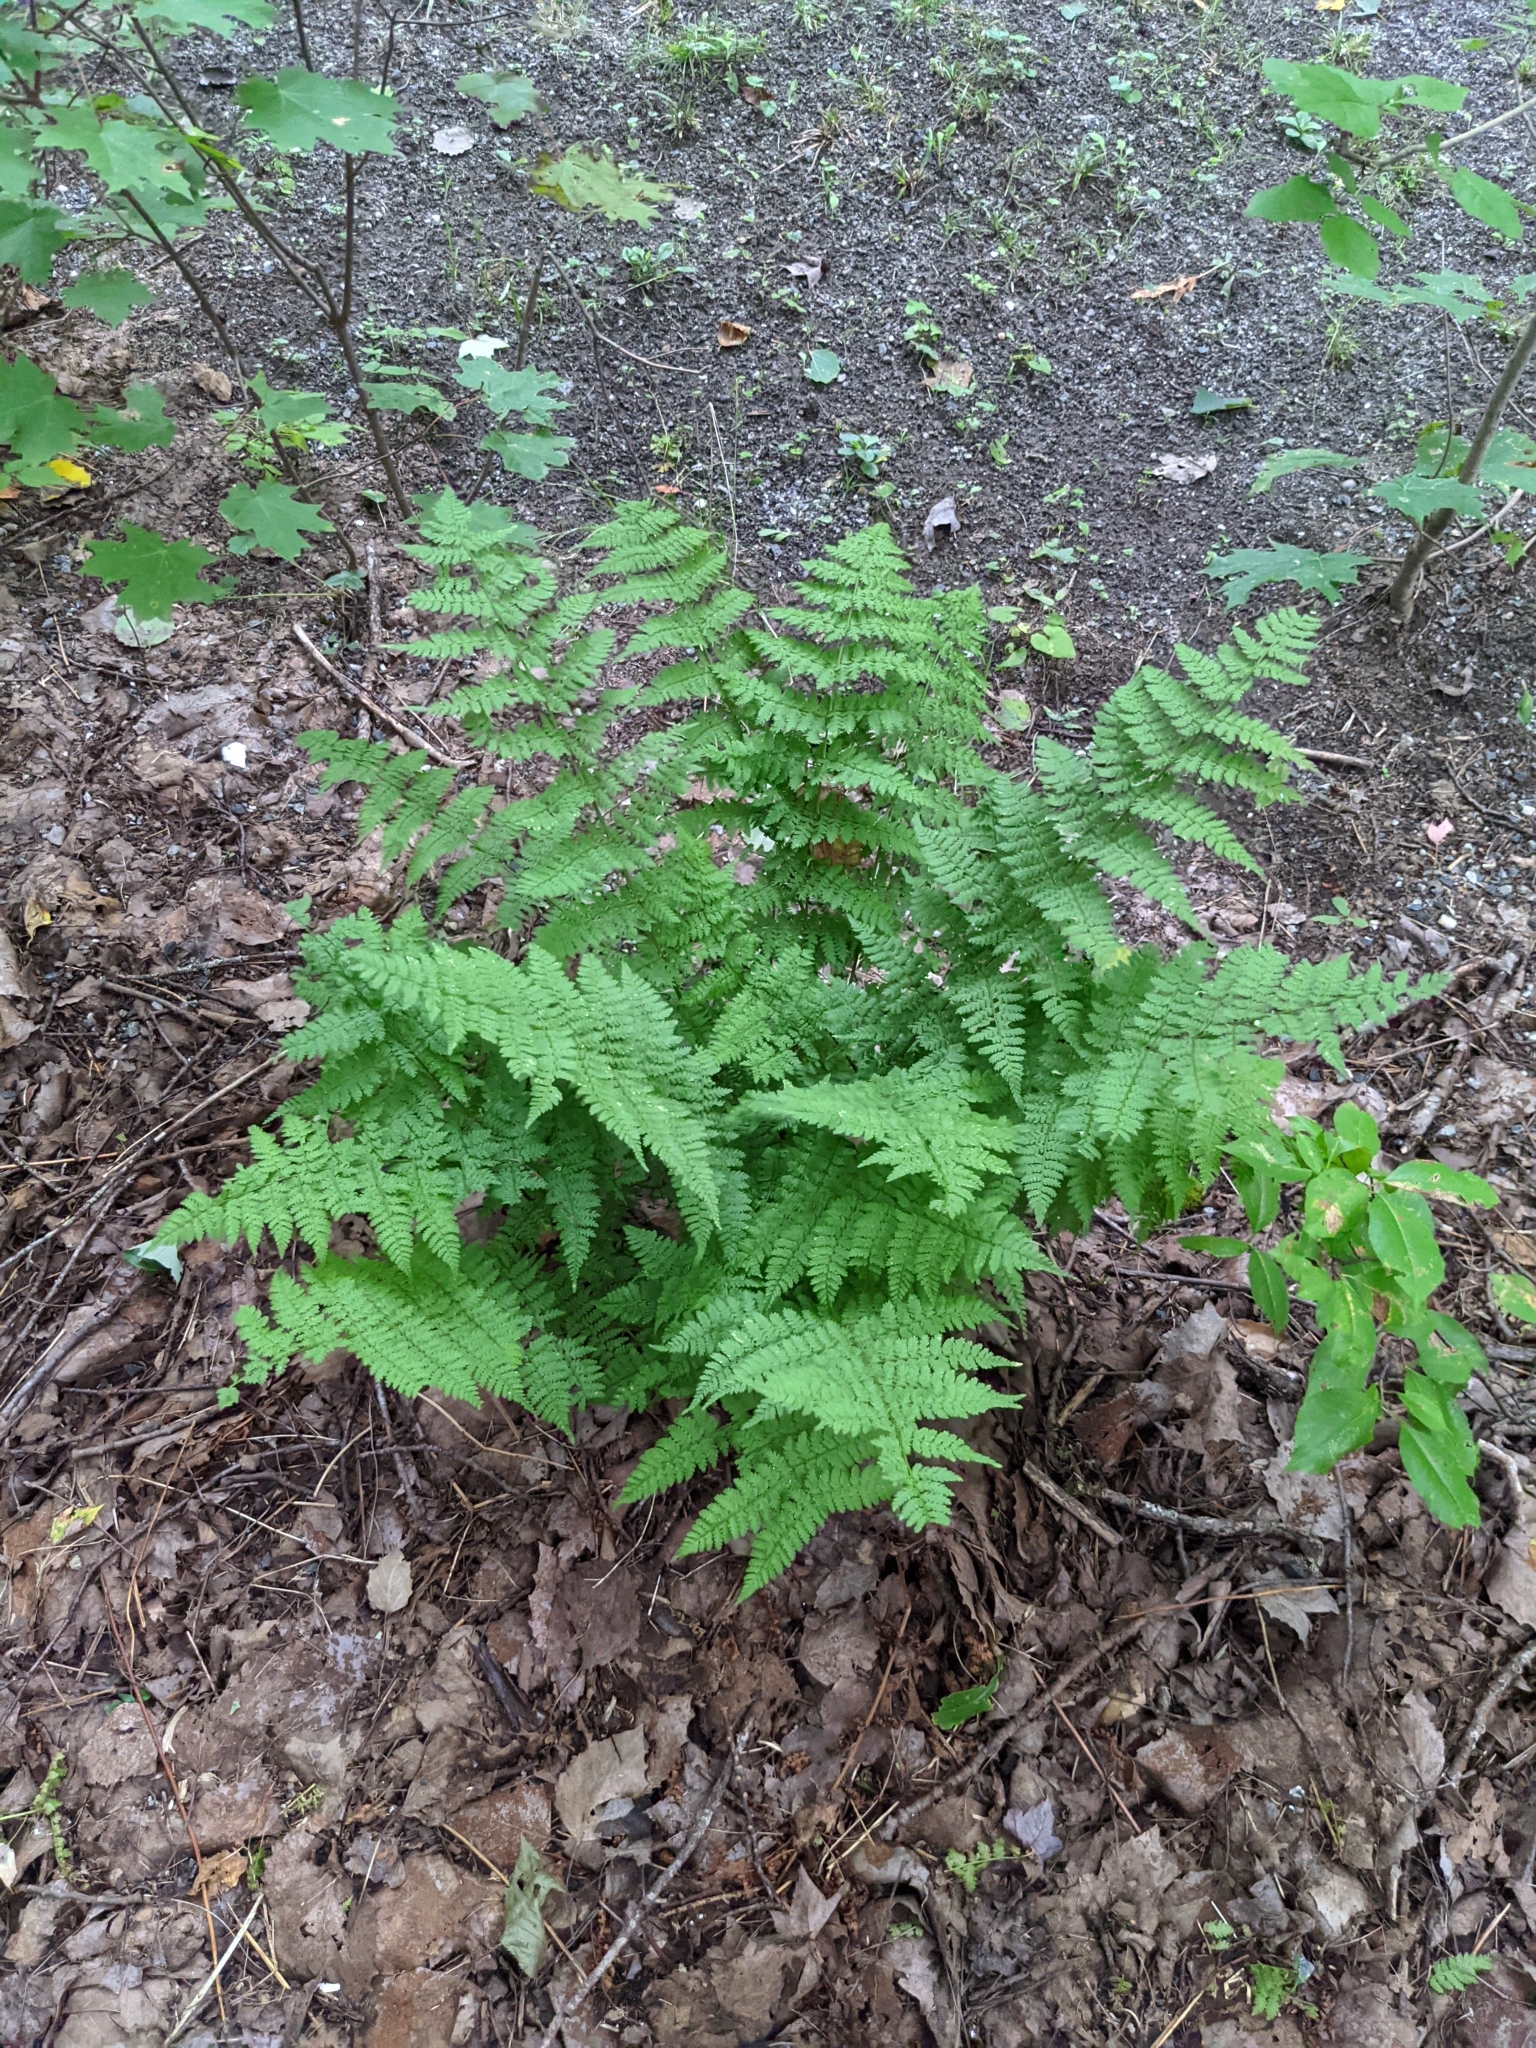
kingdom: Plantae
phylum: Tracheophyta
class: Polypodiopsida
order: Polypodiales
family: Dryopteridaceae
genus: Dryopteris
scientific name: Dryopteris intermedia
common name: Evergreen wood fern
